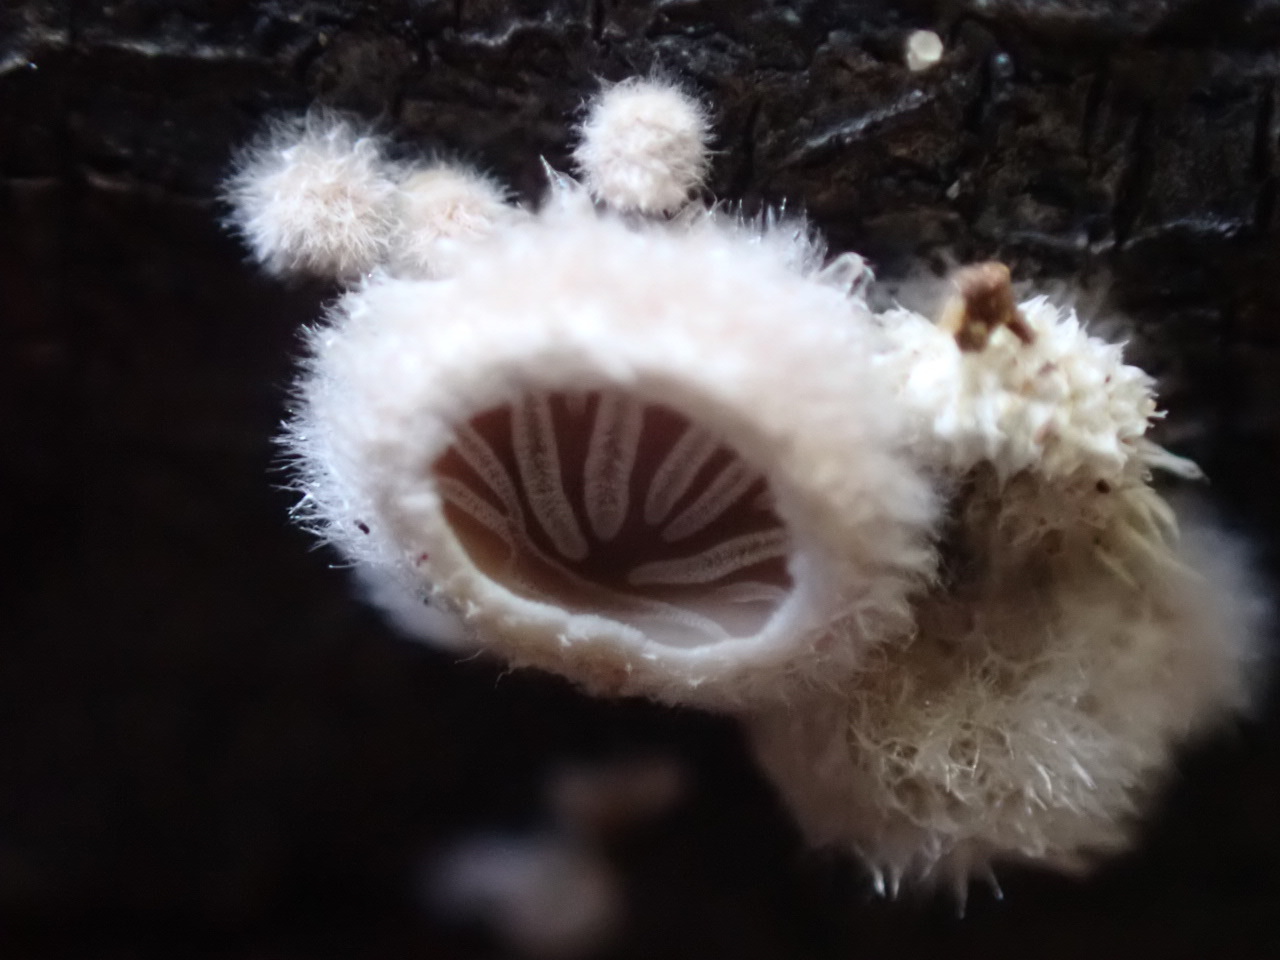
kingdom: Fungi
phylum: Basidiomycota
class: Agaricomycetes
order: Agaricales
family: Schizophyllaceae
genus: Schizophyllum
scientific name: Schizophyllum commune
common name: Common porecrust
